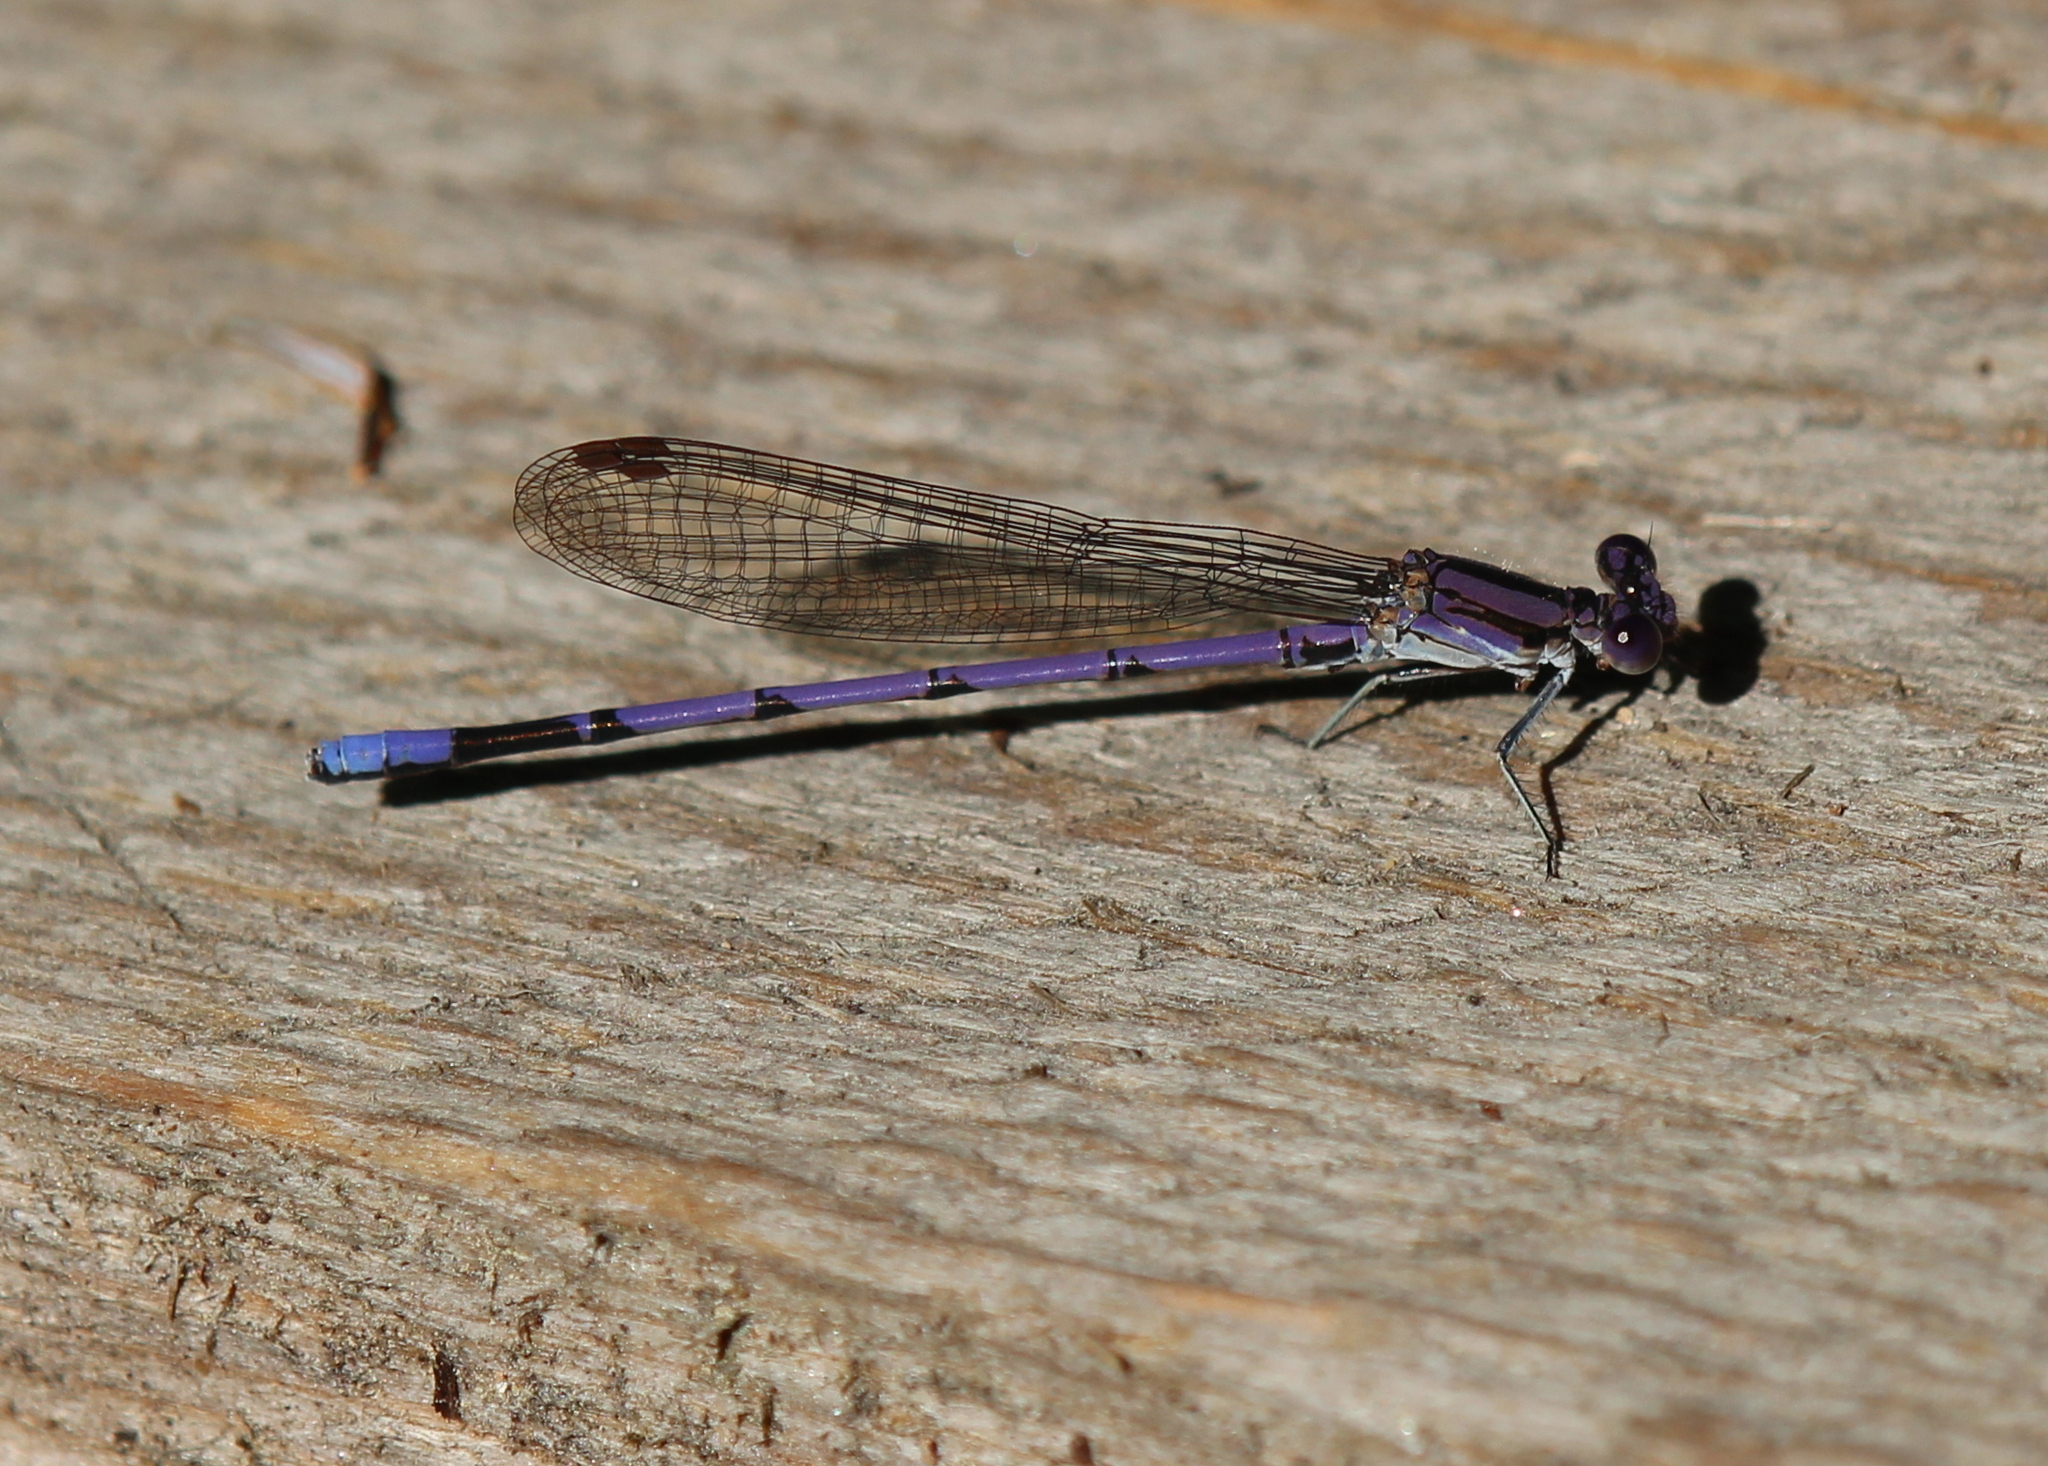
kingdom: Animalia
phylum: Arthropoda
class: Insecta
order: Odonata
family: Coenagrionidae
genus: Argia
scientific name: Argia fumipennis
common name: Variable dancer
